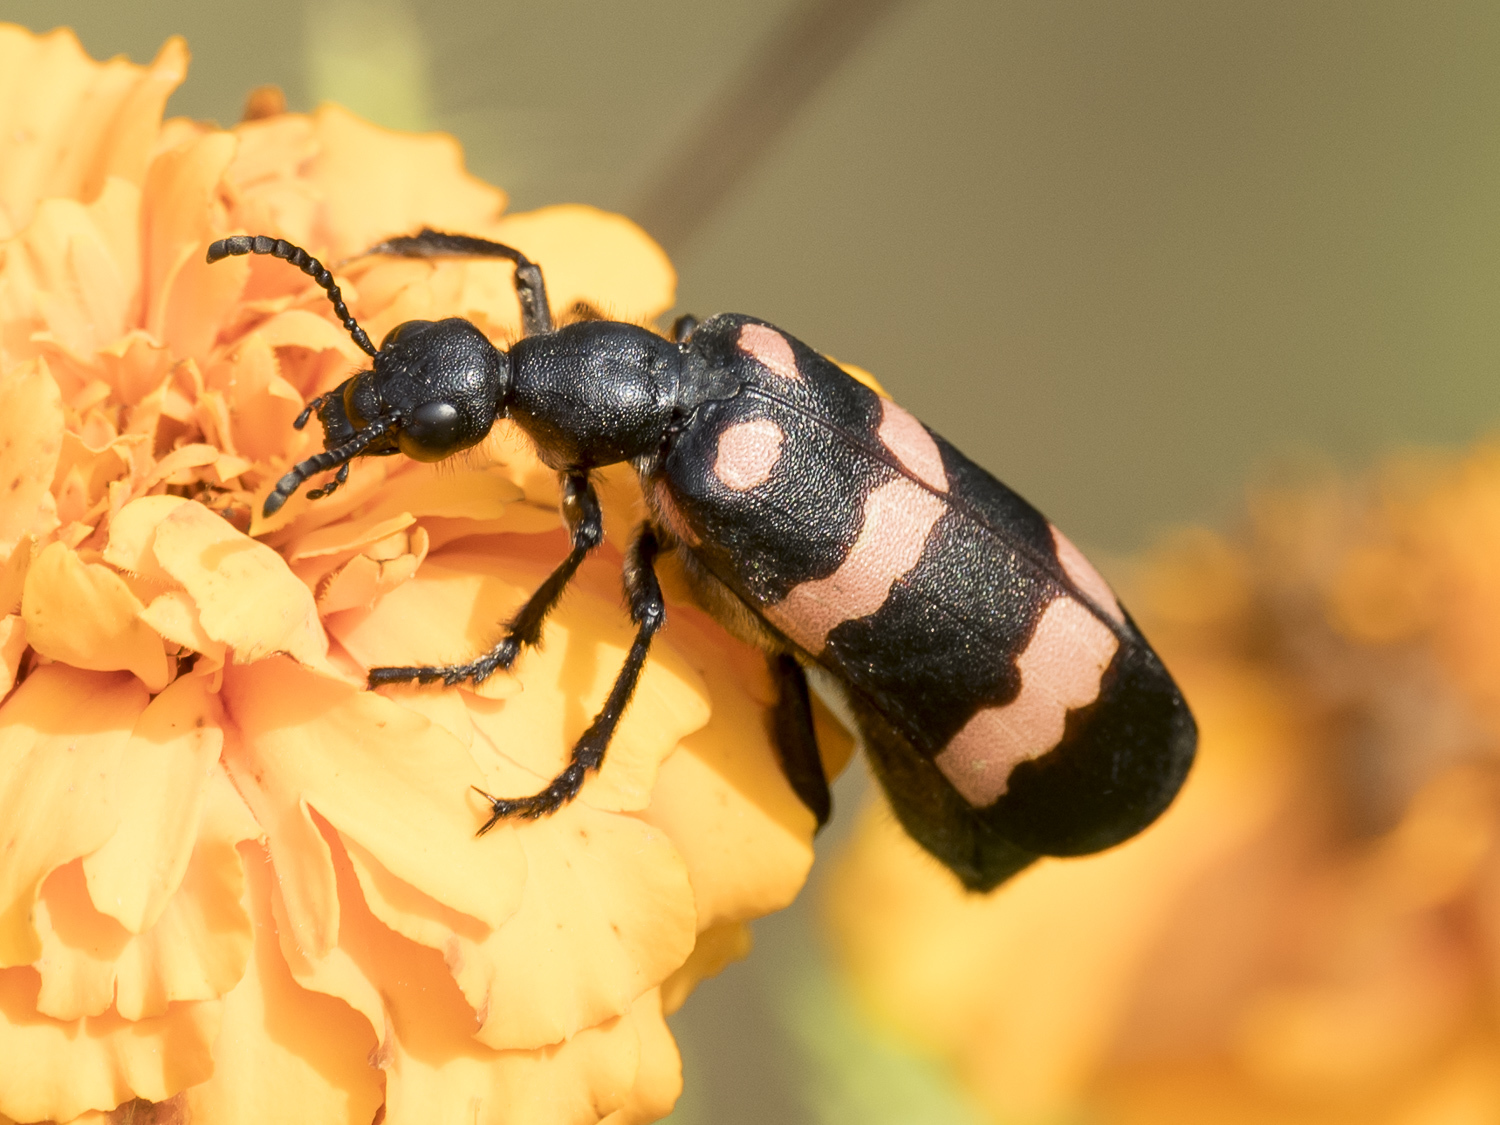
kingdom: Animalia
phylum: Arthropoda
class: Insecta
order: Coleoptera
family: Meloidae
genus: Hycleus
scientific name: Hycleus biundulatus
